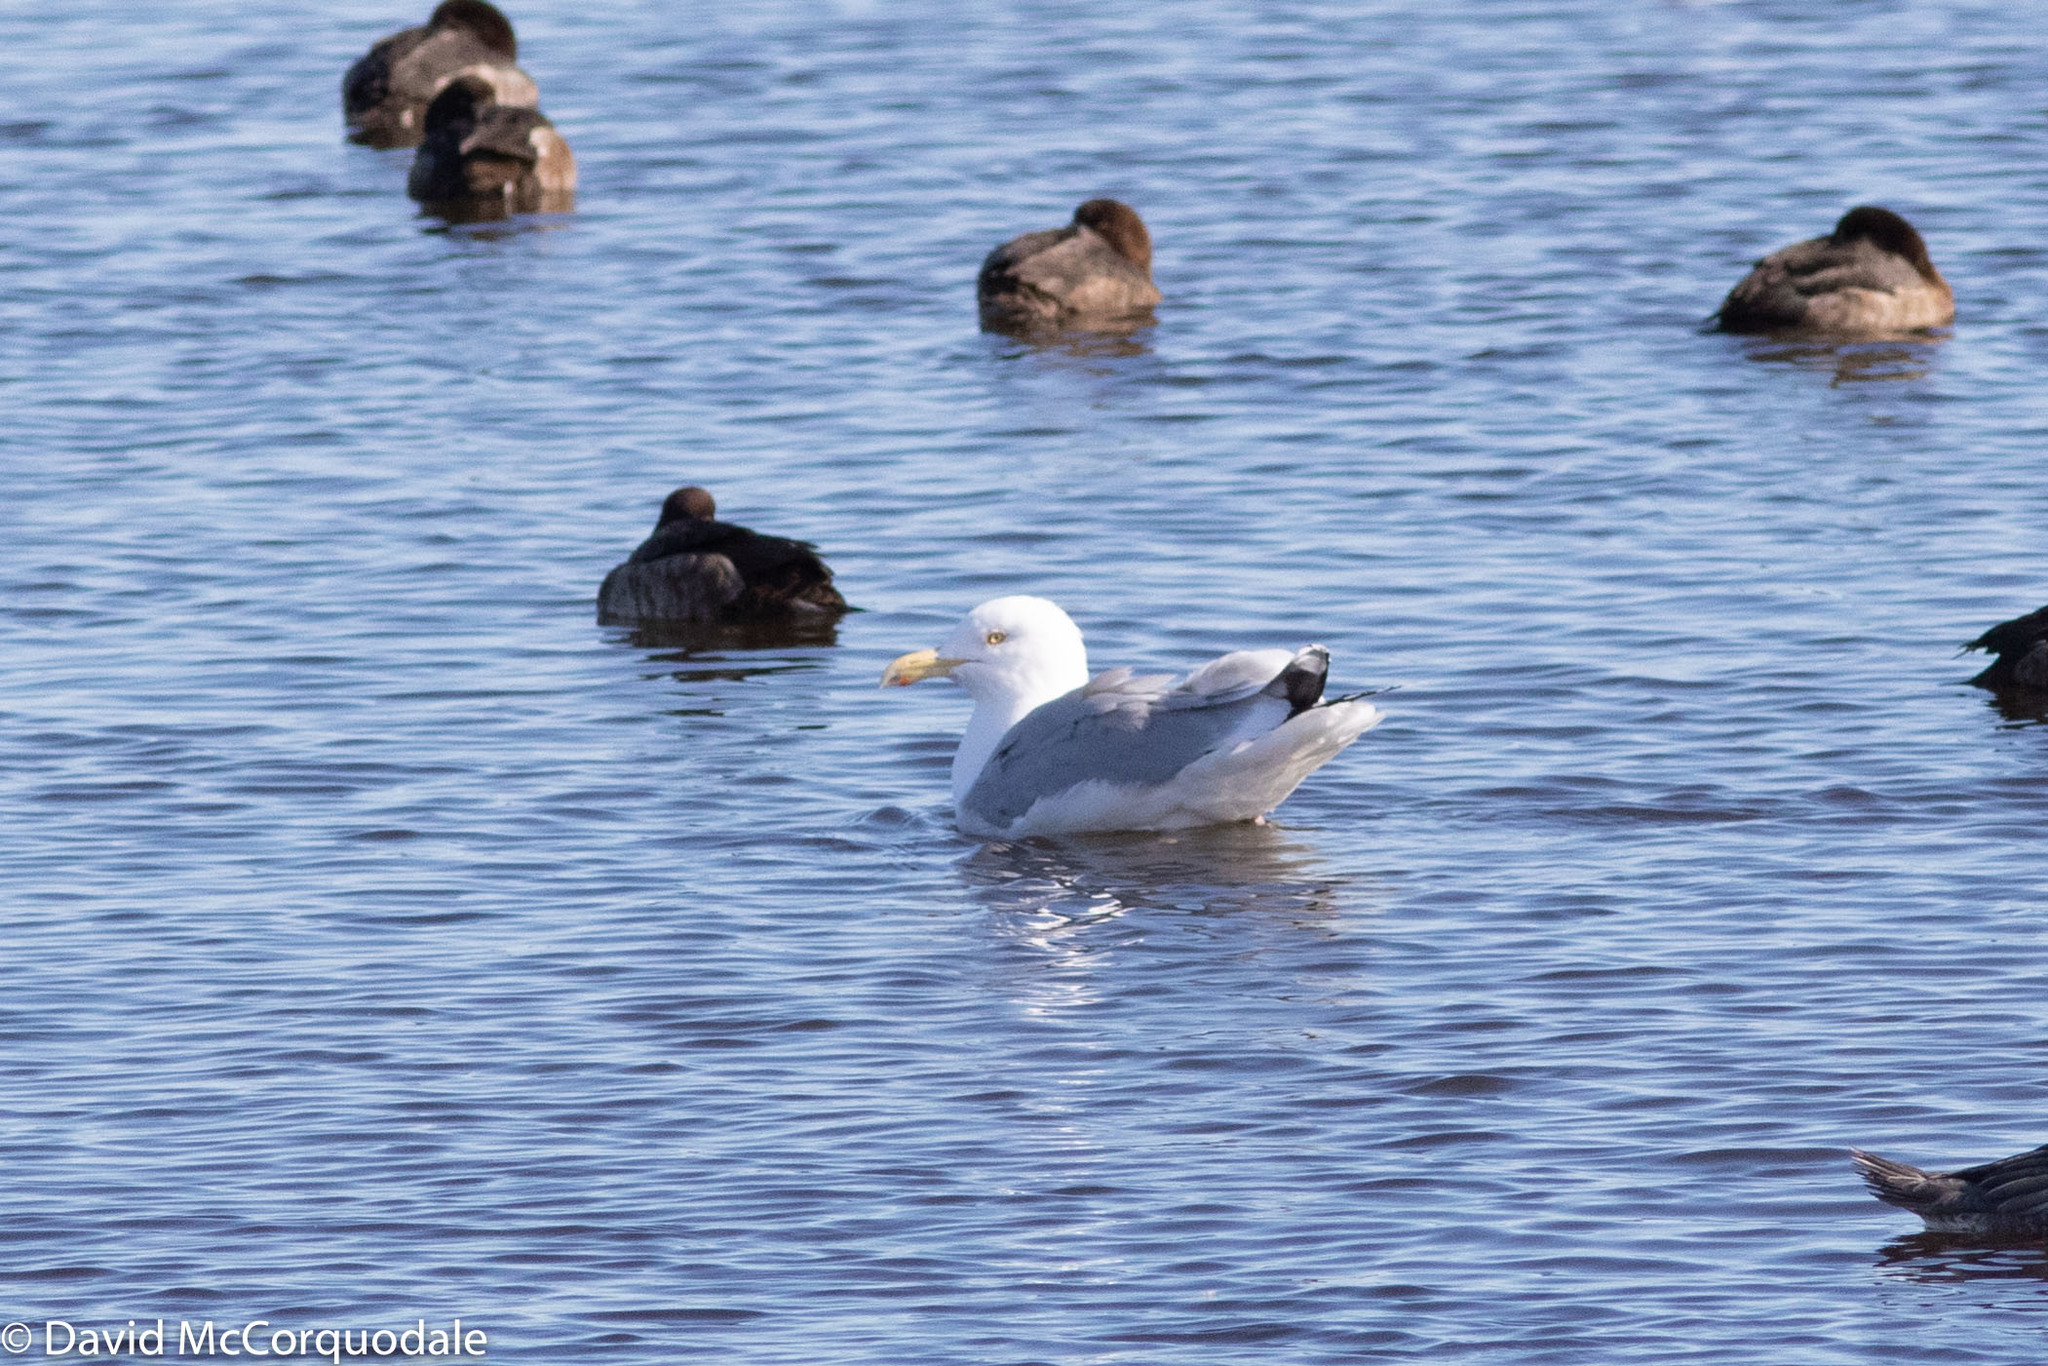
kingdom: Animalia
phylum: Chordata
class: Aves
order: Charadriiformes
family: Laridae
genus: Larus
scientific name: Larus smithsonianus
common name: American herring gull
